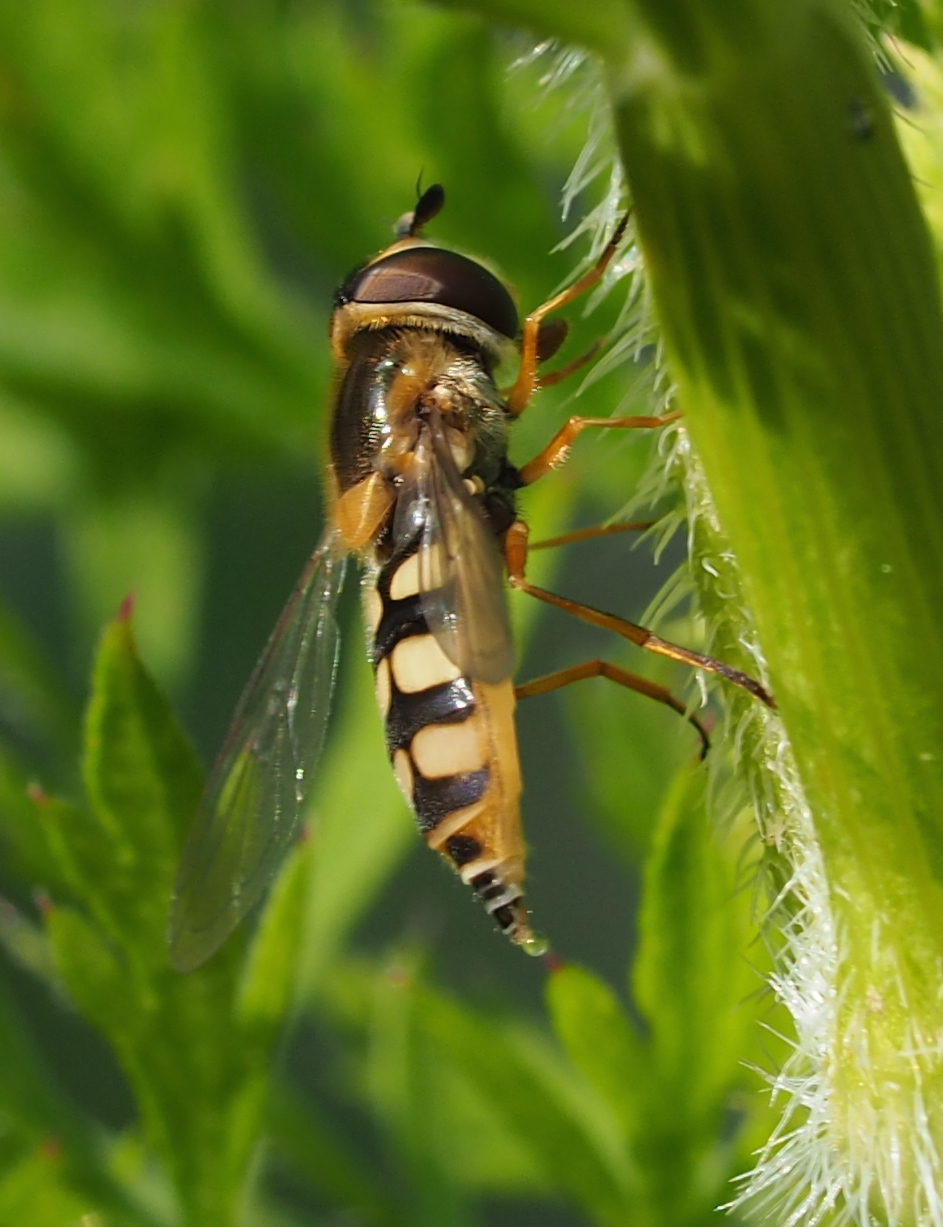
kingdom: Animalia
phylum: Arthropoda
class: Insecta
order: Diptera
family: Syrphidae
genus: Eupeodes
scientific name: Eupeodes corollae
